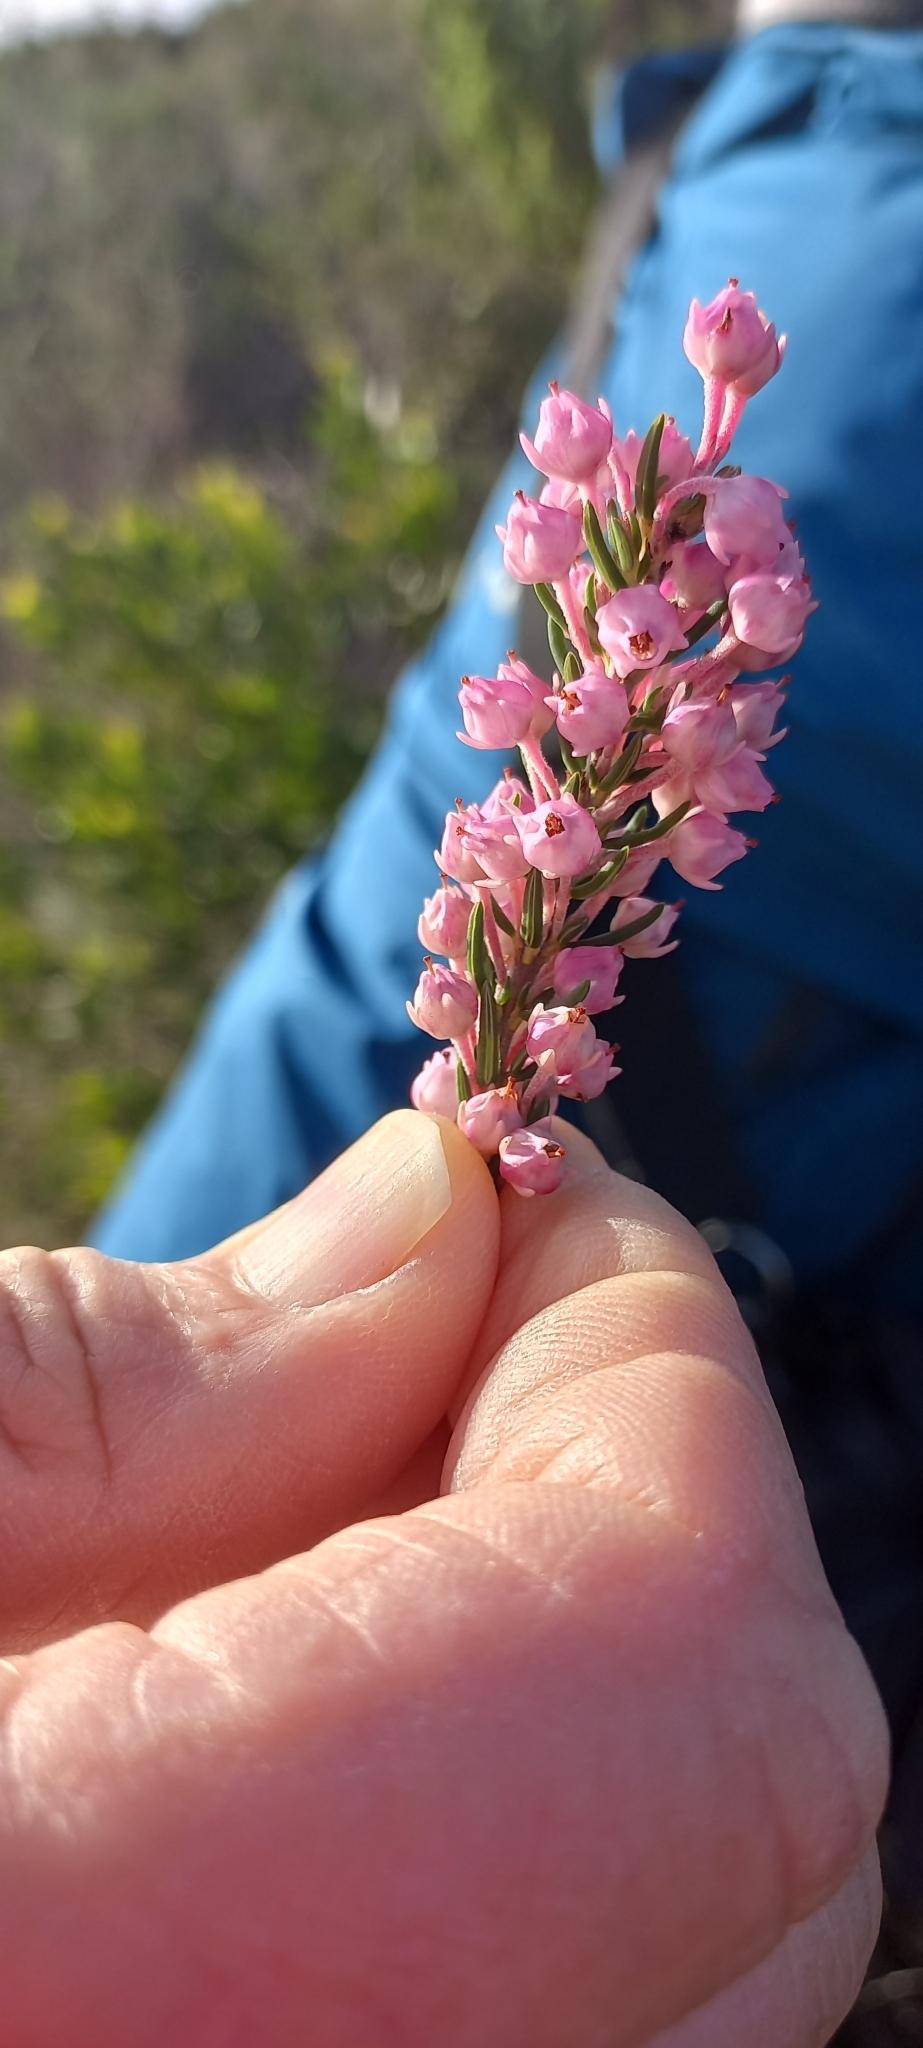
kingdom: Plantae
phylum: Tracheophyta
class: Magnoliopsida
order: Ericales
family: Ericaceae
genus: Erica
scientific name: Erica irregularis
